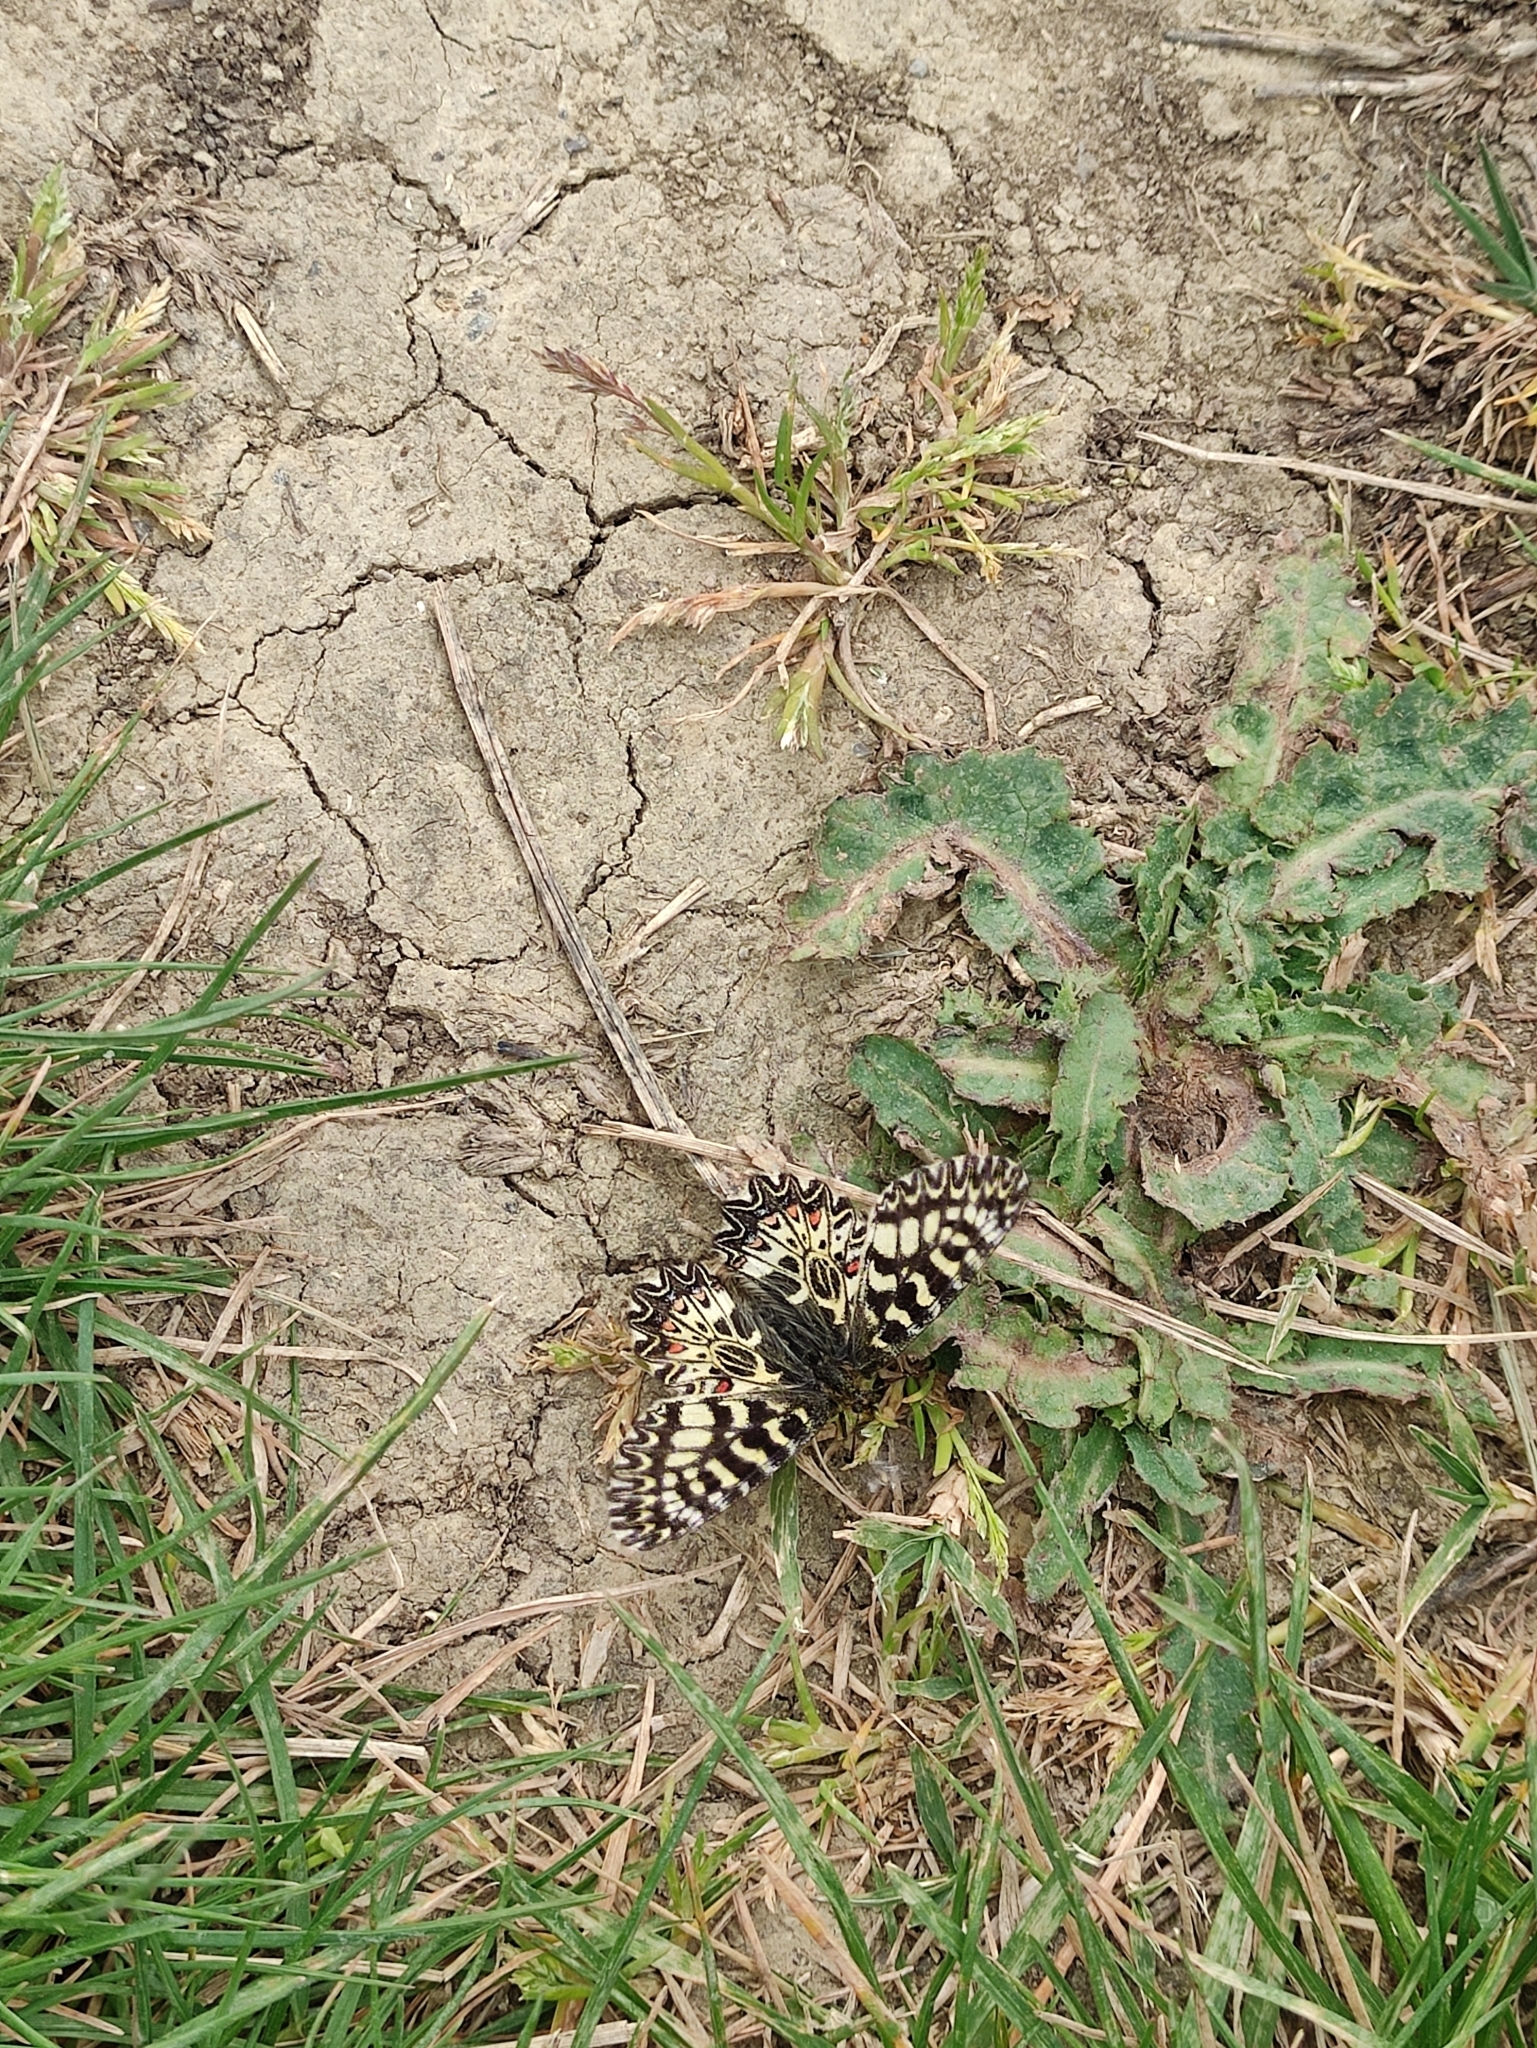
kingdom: Animalia
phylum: Arthropoda
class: Insecta
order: Lepidoptera
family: Papilionidae
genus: Zerynthia
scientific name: Zerynthia polyxena
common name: Southern festoon
